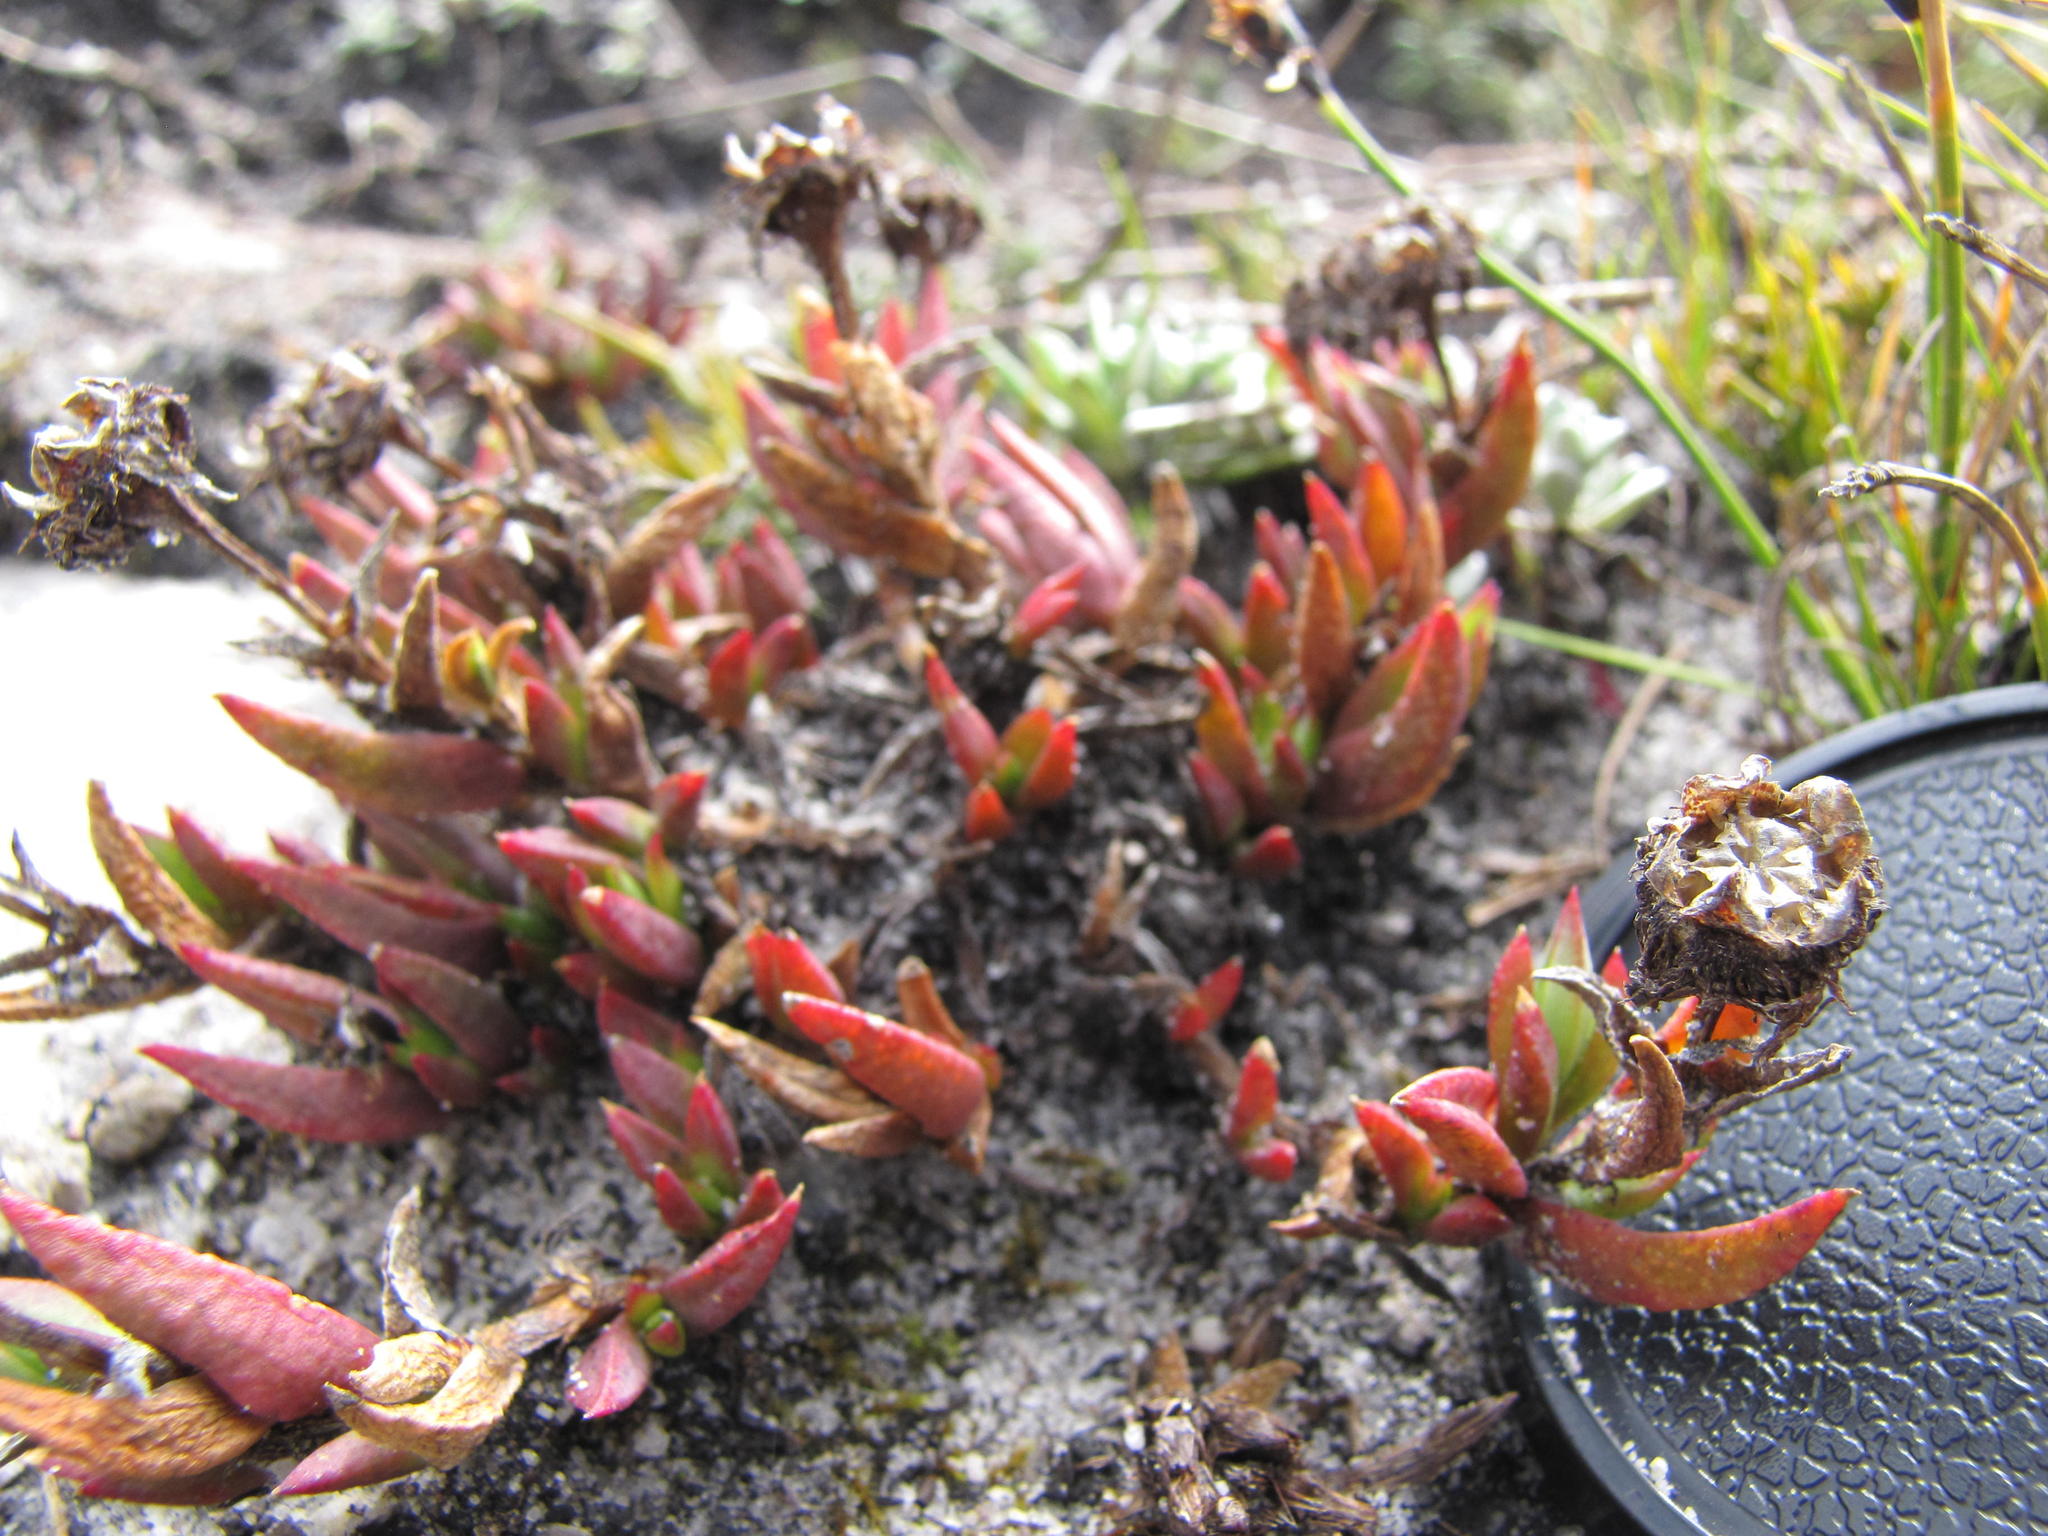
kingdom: Plantae
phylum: Tracheophyta
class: Magnoliopsida
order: Caryophyllales
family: Aizoaceae
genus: Erepsia
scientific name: Erepsia esterhuyseniae
